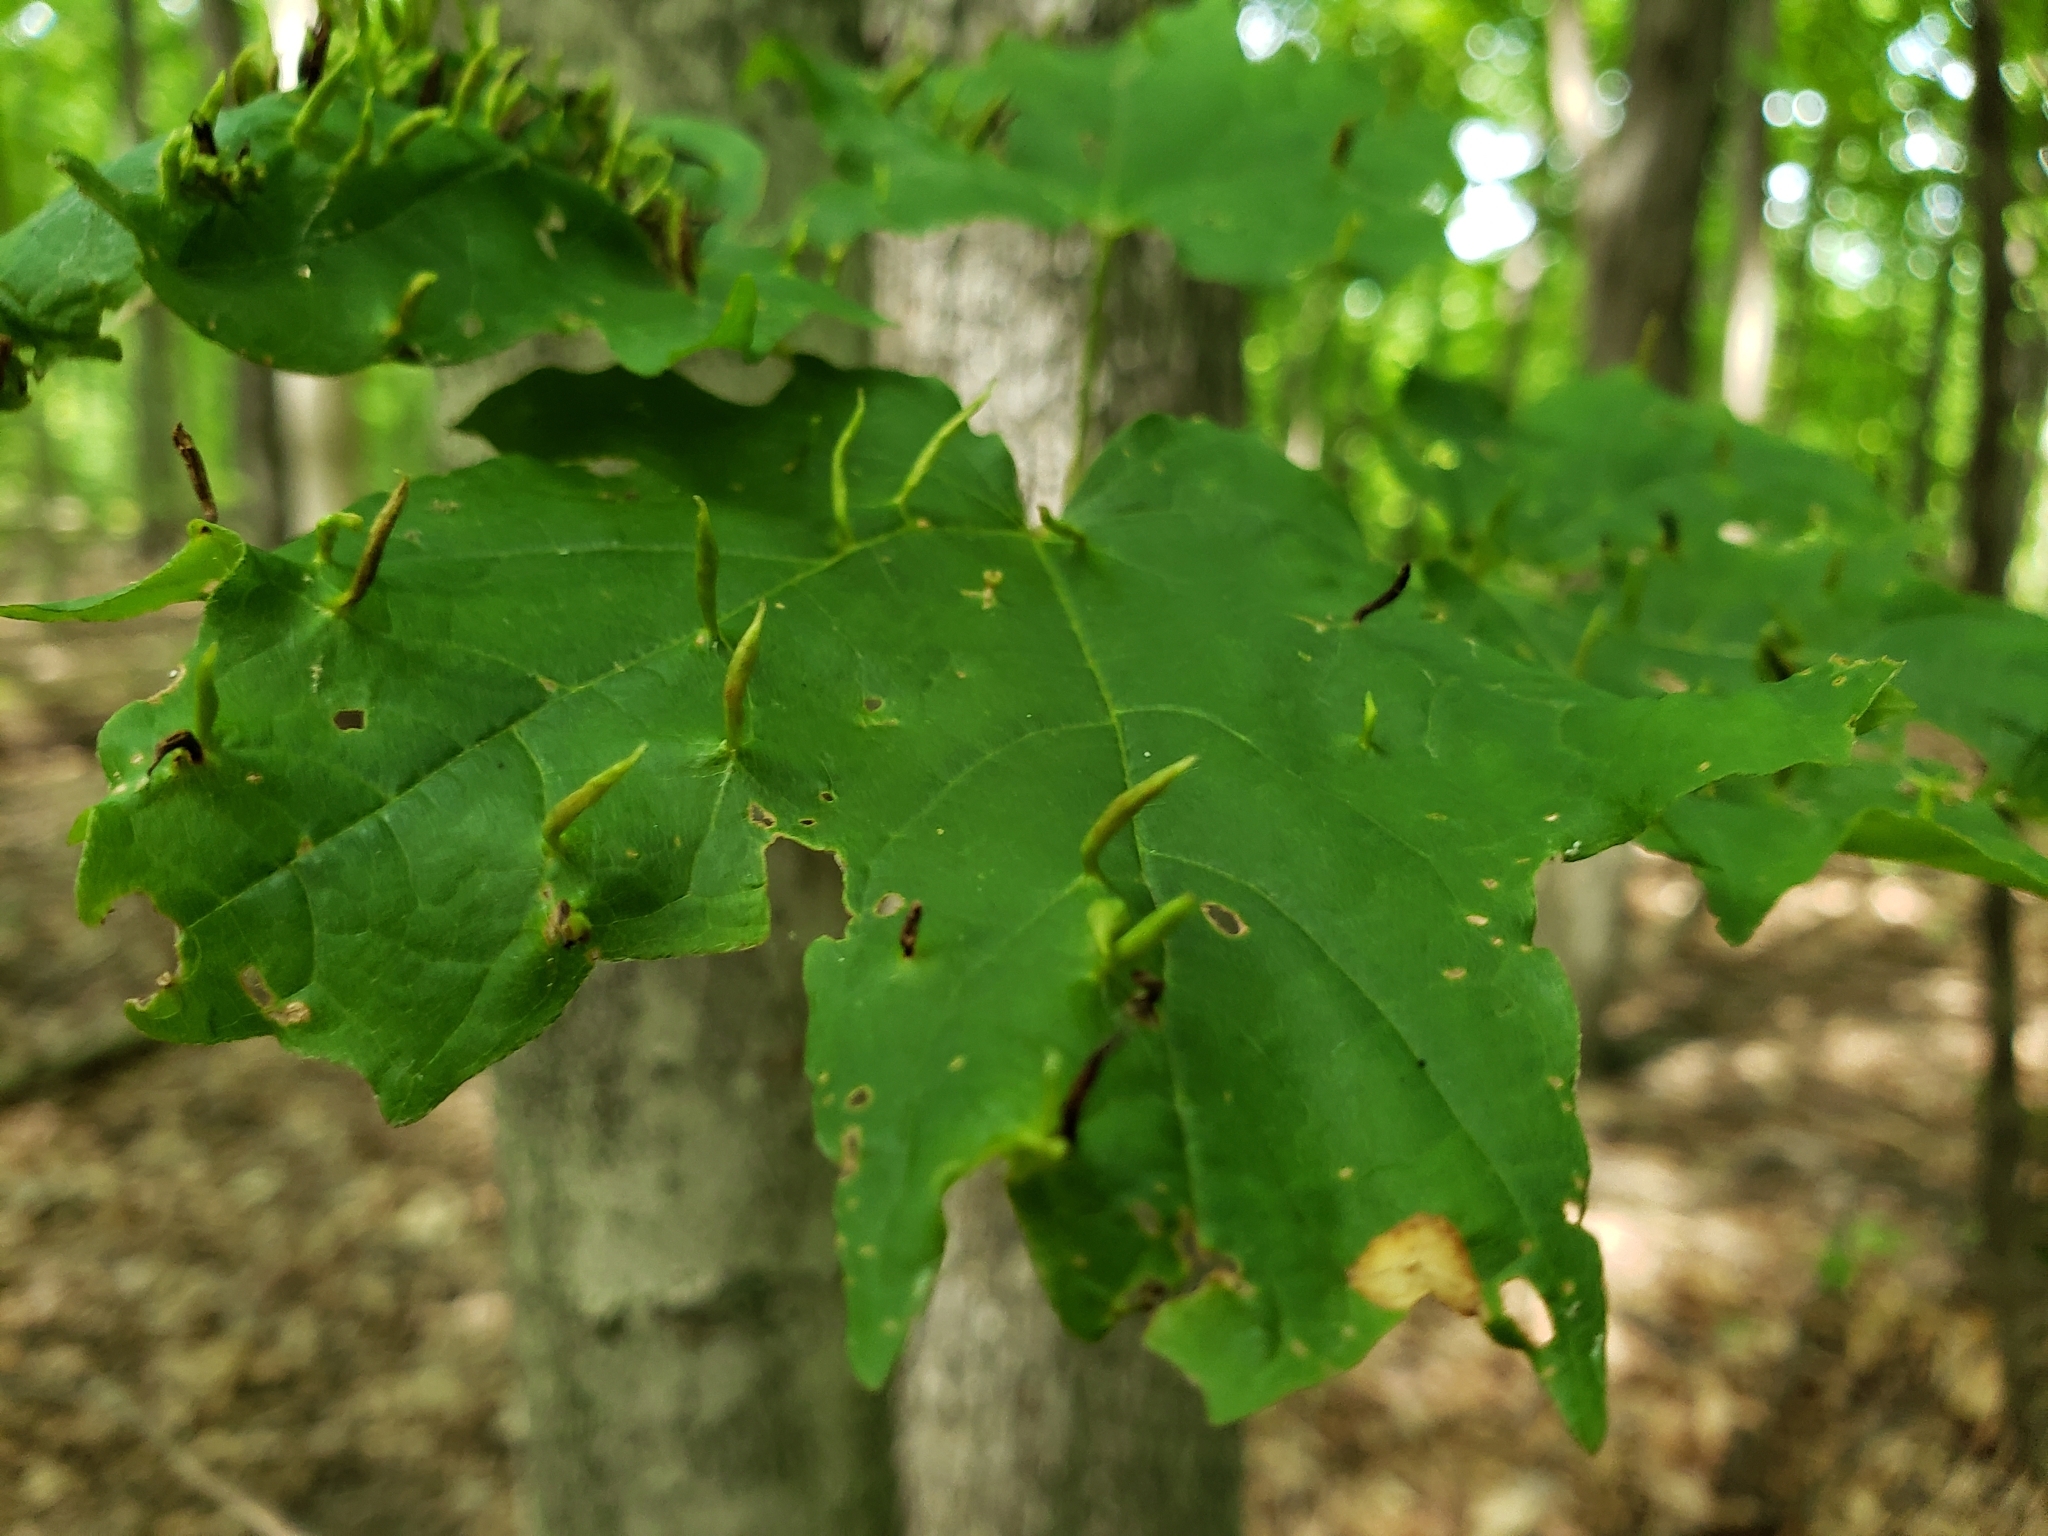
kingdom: Animalia
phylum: Arthropoda
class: Arachnida
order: Trombidiformes
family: Eriophyidae
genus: Vasates
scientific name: Vasates aceriscrumena
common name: Maple spindle gall mite
